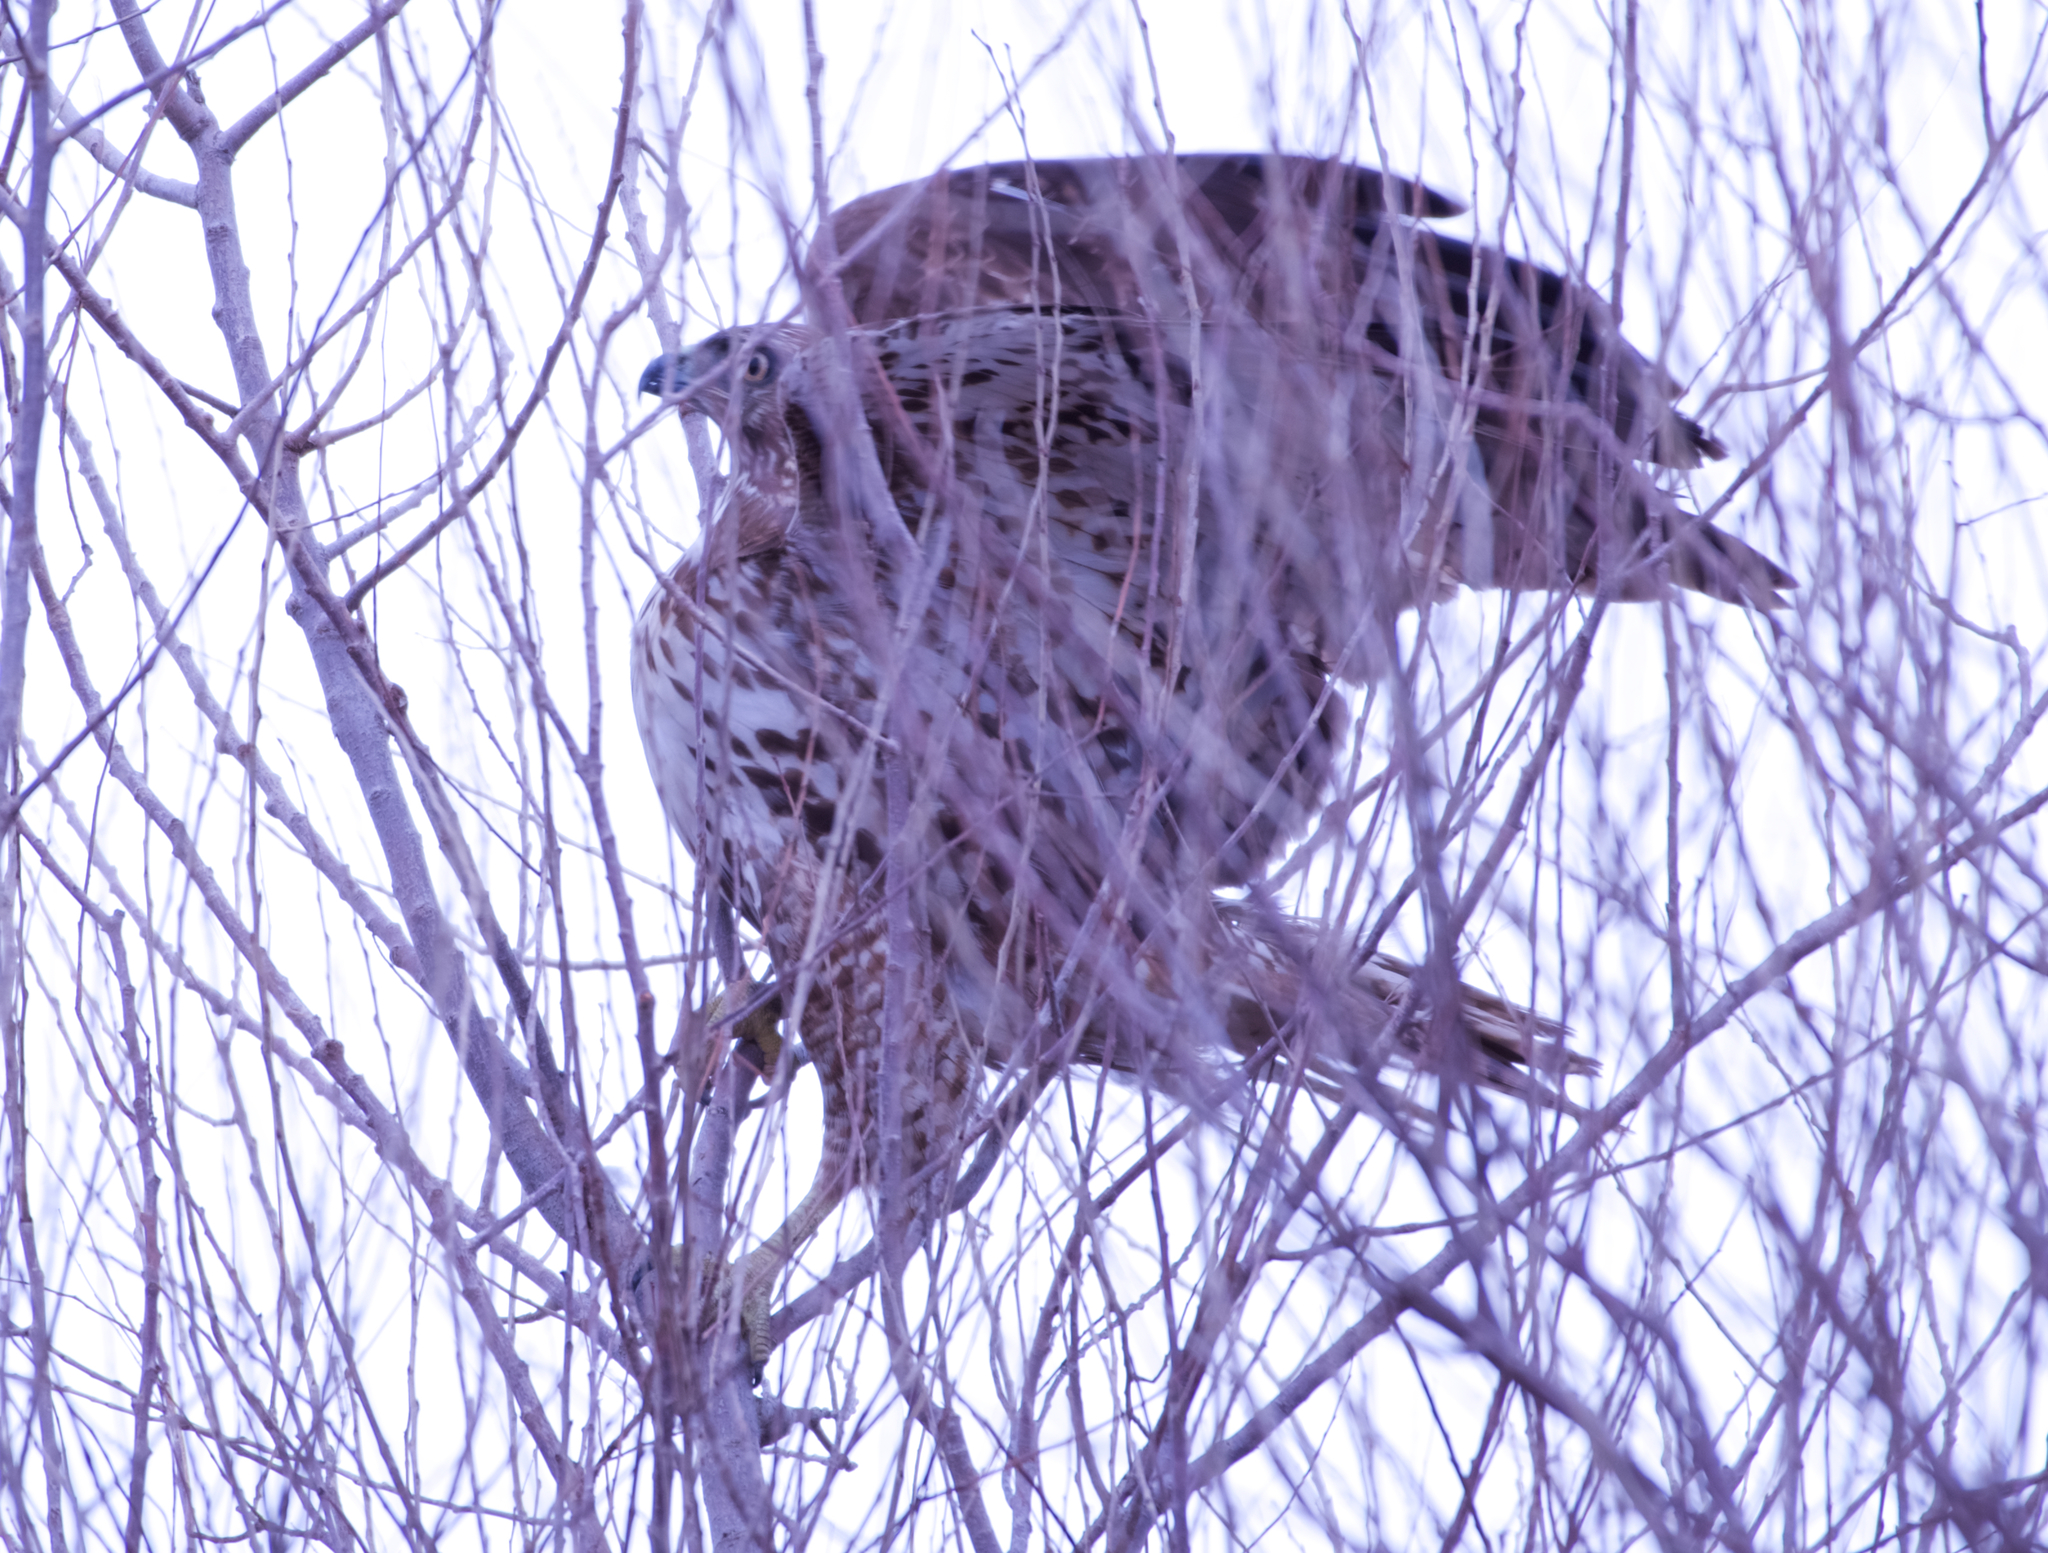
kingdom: Animalia
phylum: Chordata
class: Aves
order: Accipitriformes
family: Accipitridae
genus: Buteo
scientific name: Buteo jamaicensis
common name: Red-tailed hawk
